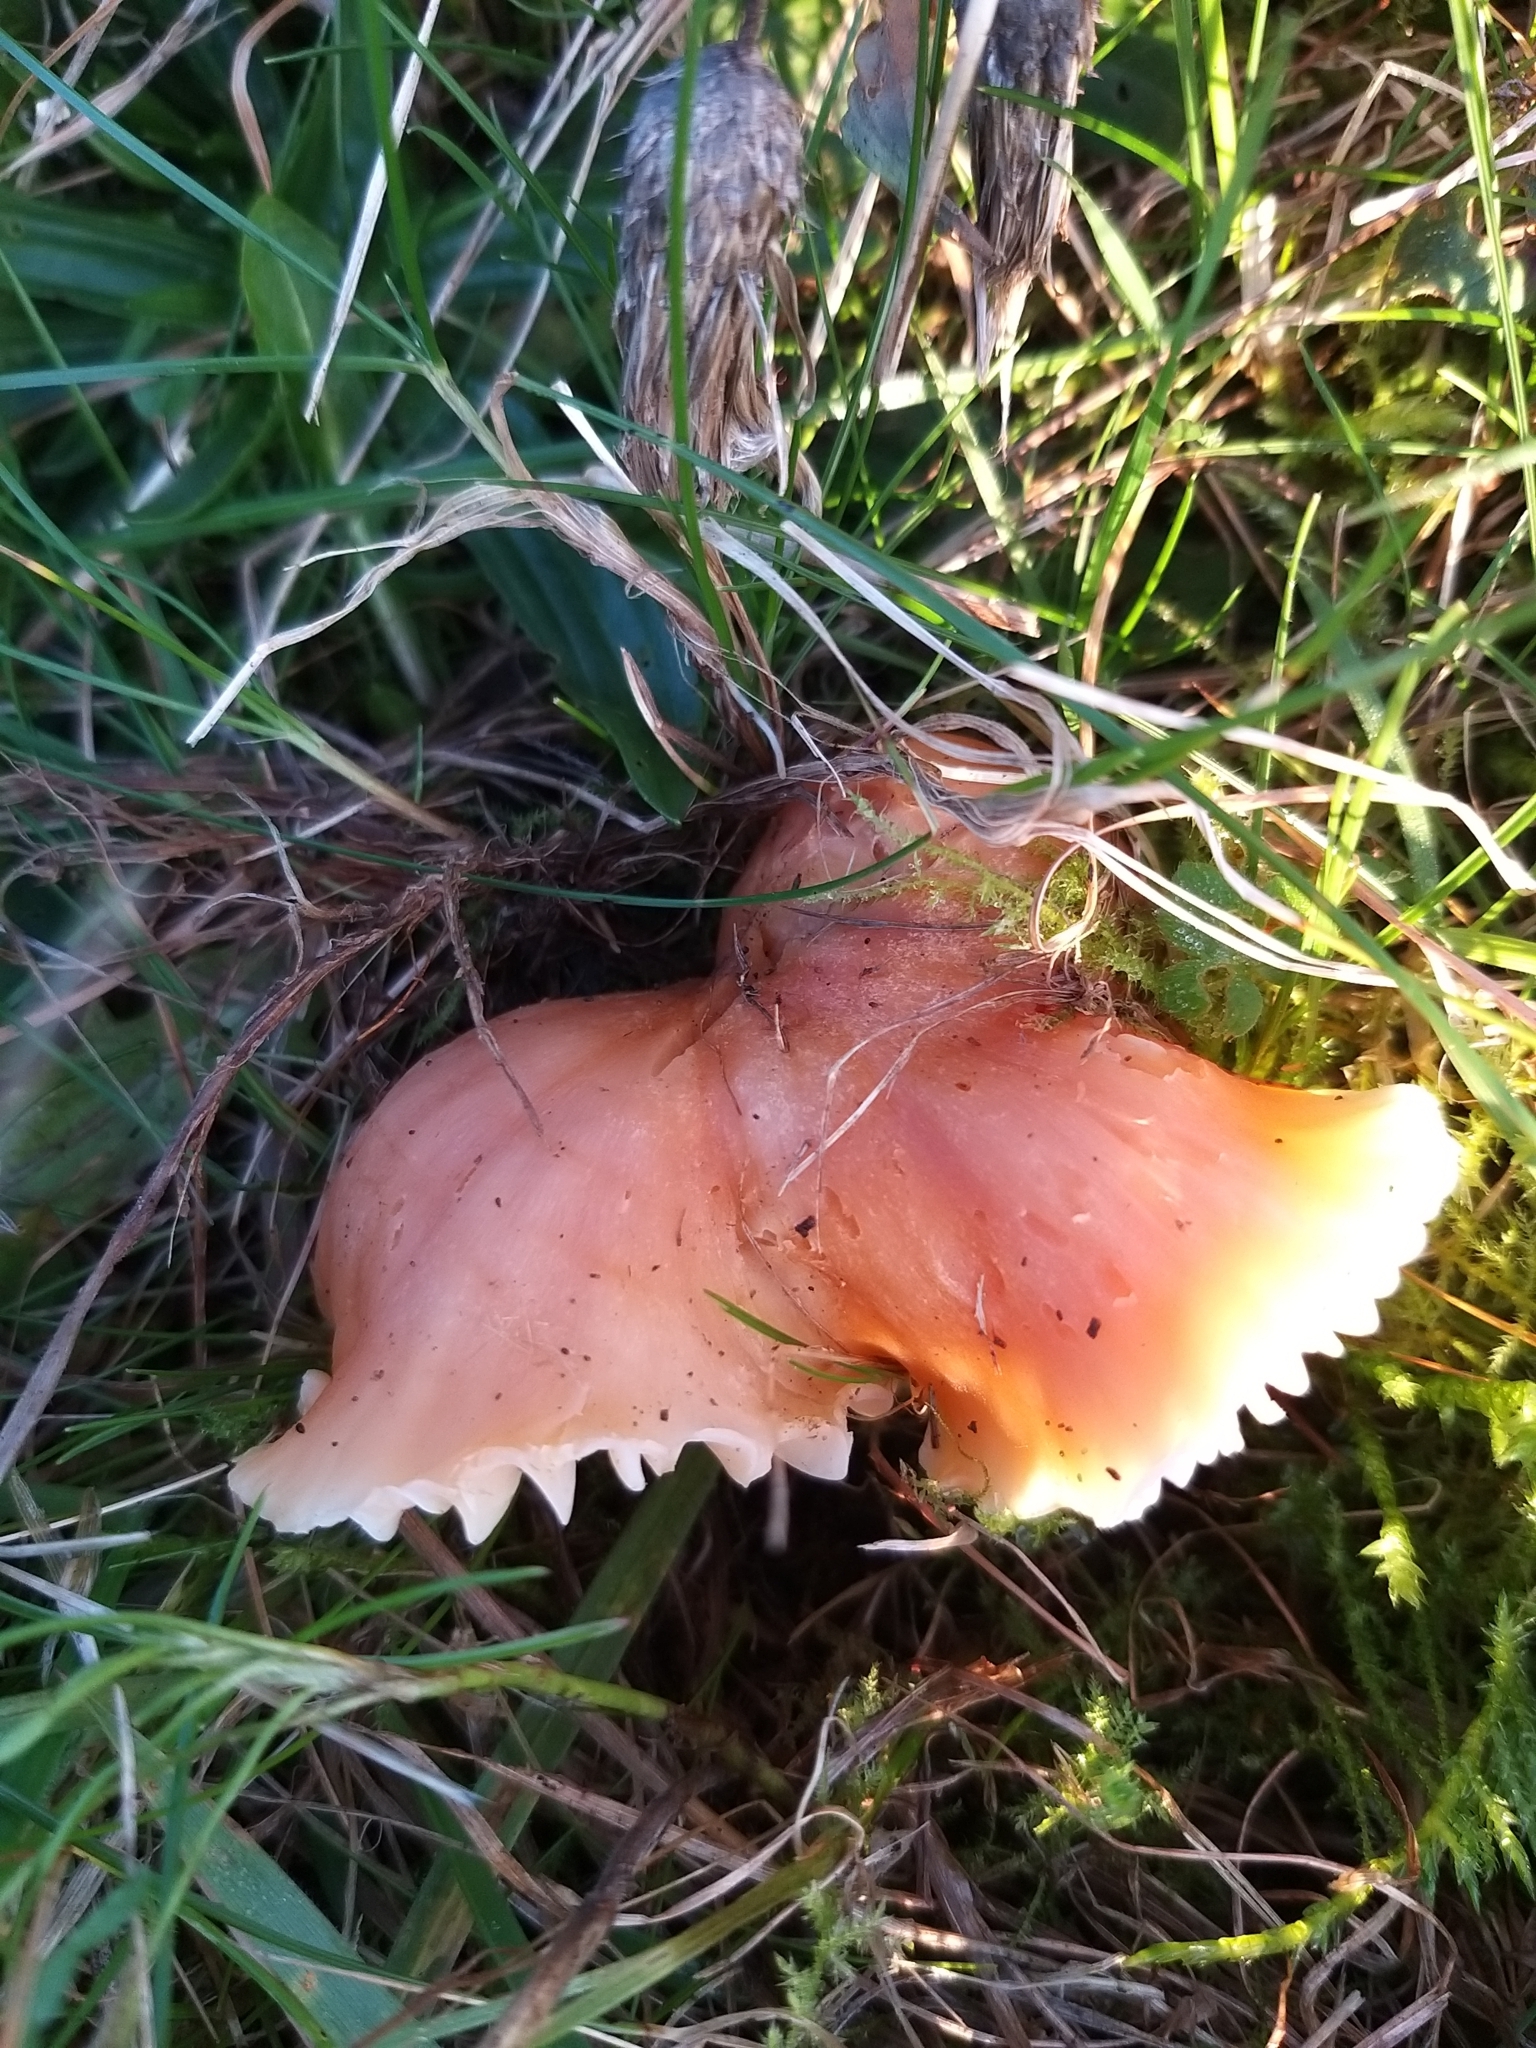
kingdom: Fungi
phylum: Basidiomycota
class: Agaricomycetes
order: Agaricales
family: Hygrophoraceae
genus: Cuphophyllus
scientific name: Cuphophyllus pratensis
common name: Meadow waxcap
